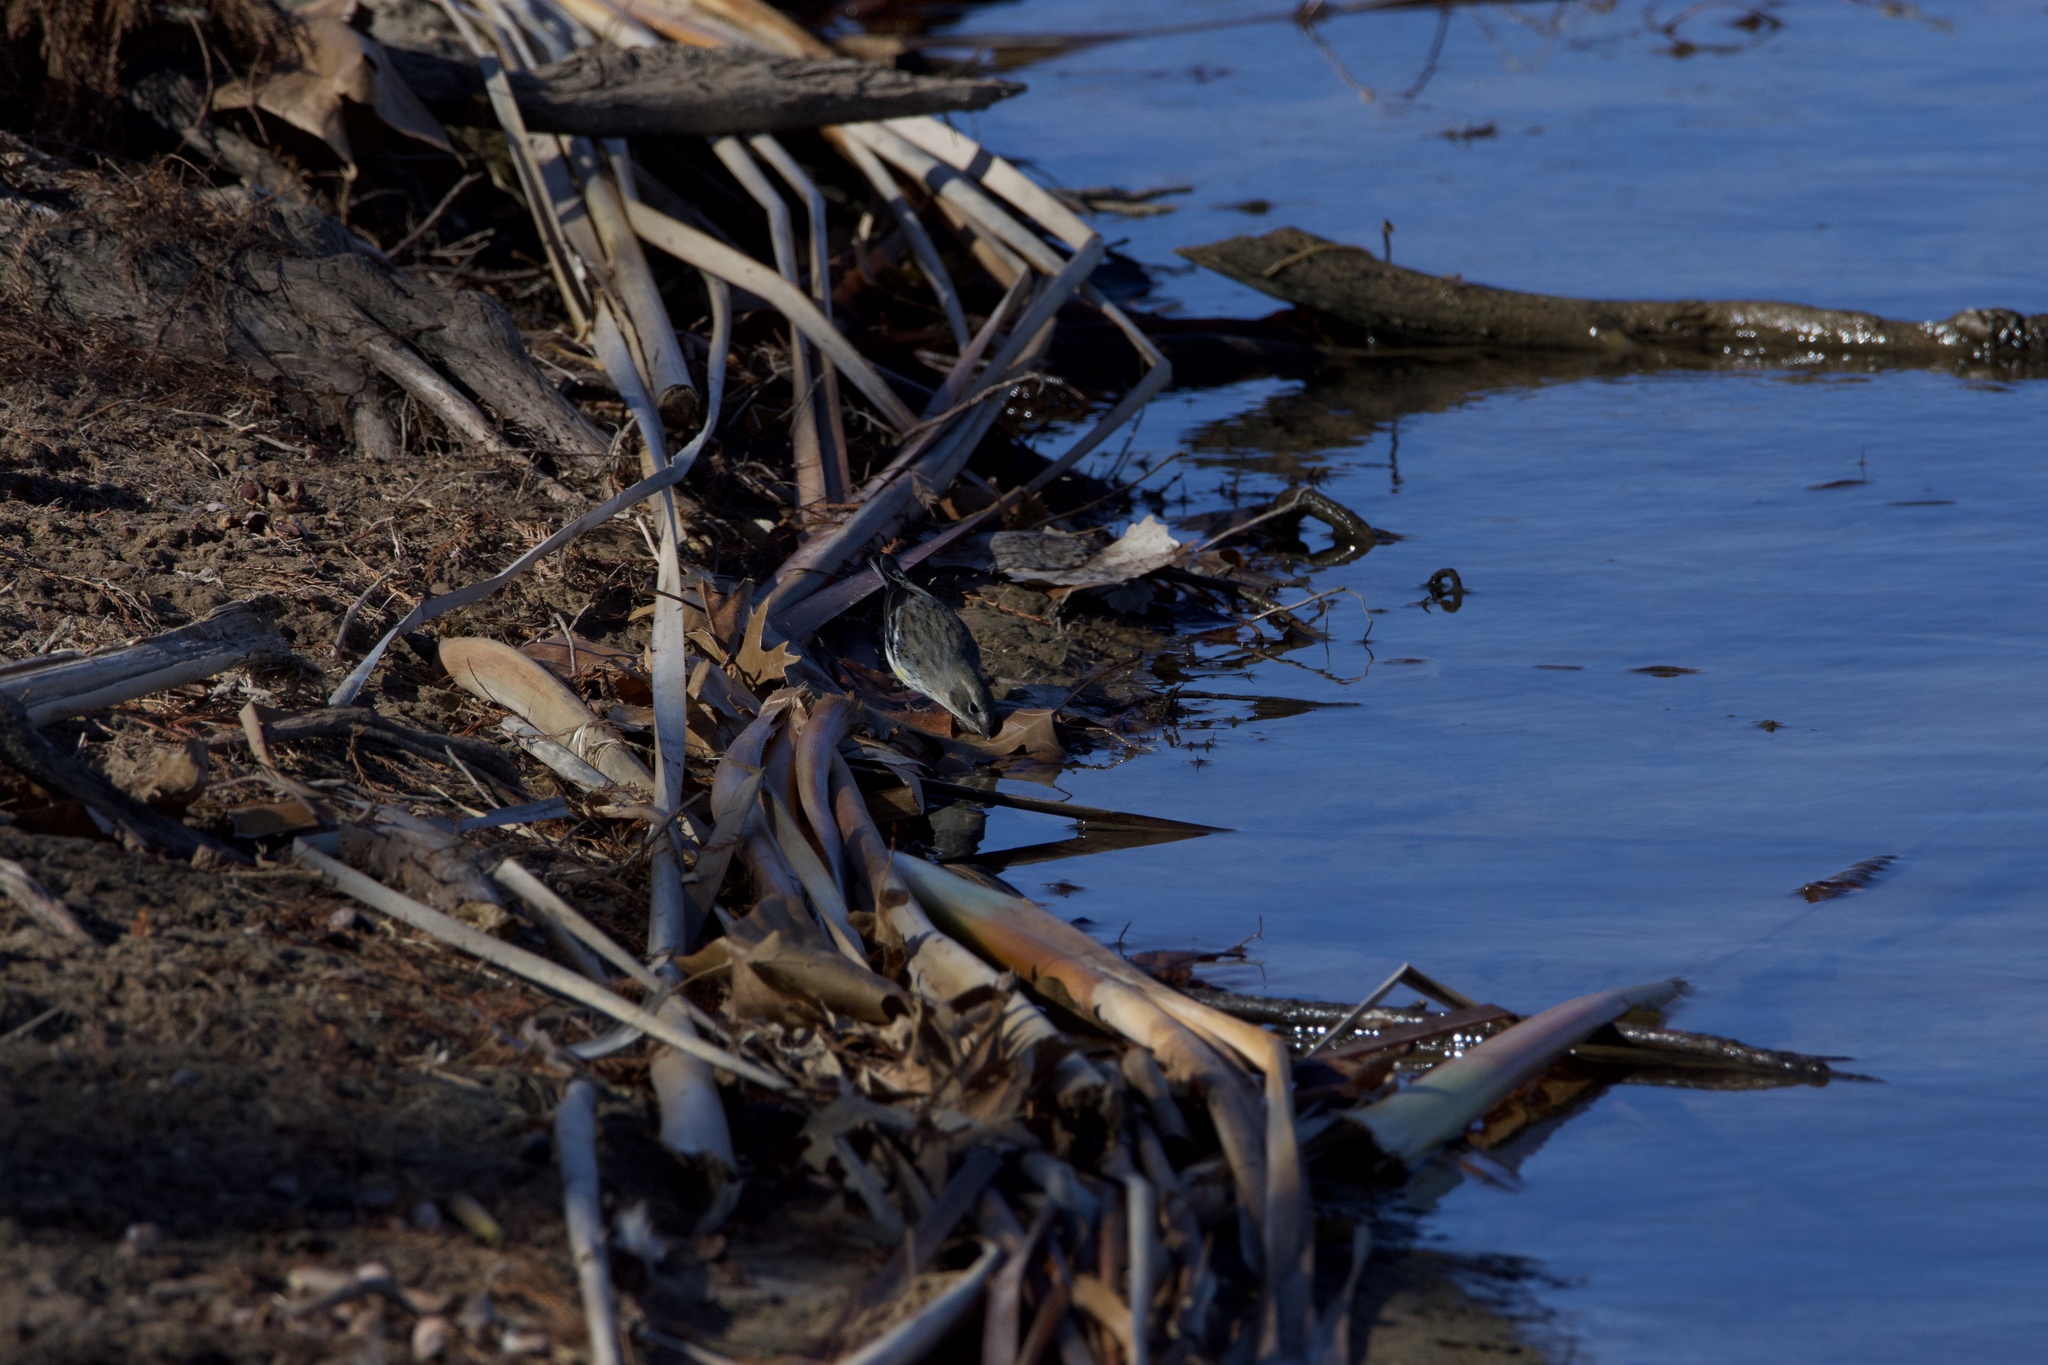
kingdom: Animalia
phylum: Chordata
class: Aves
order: Passeriformes
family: Parulidae
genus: Setophaga
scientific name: Setophaga coronata
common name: Myrtle warbler
